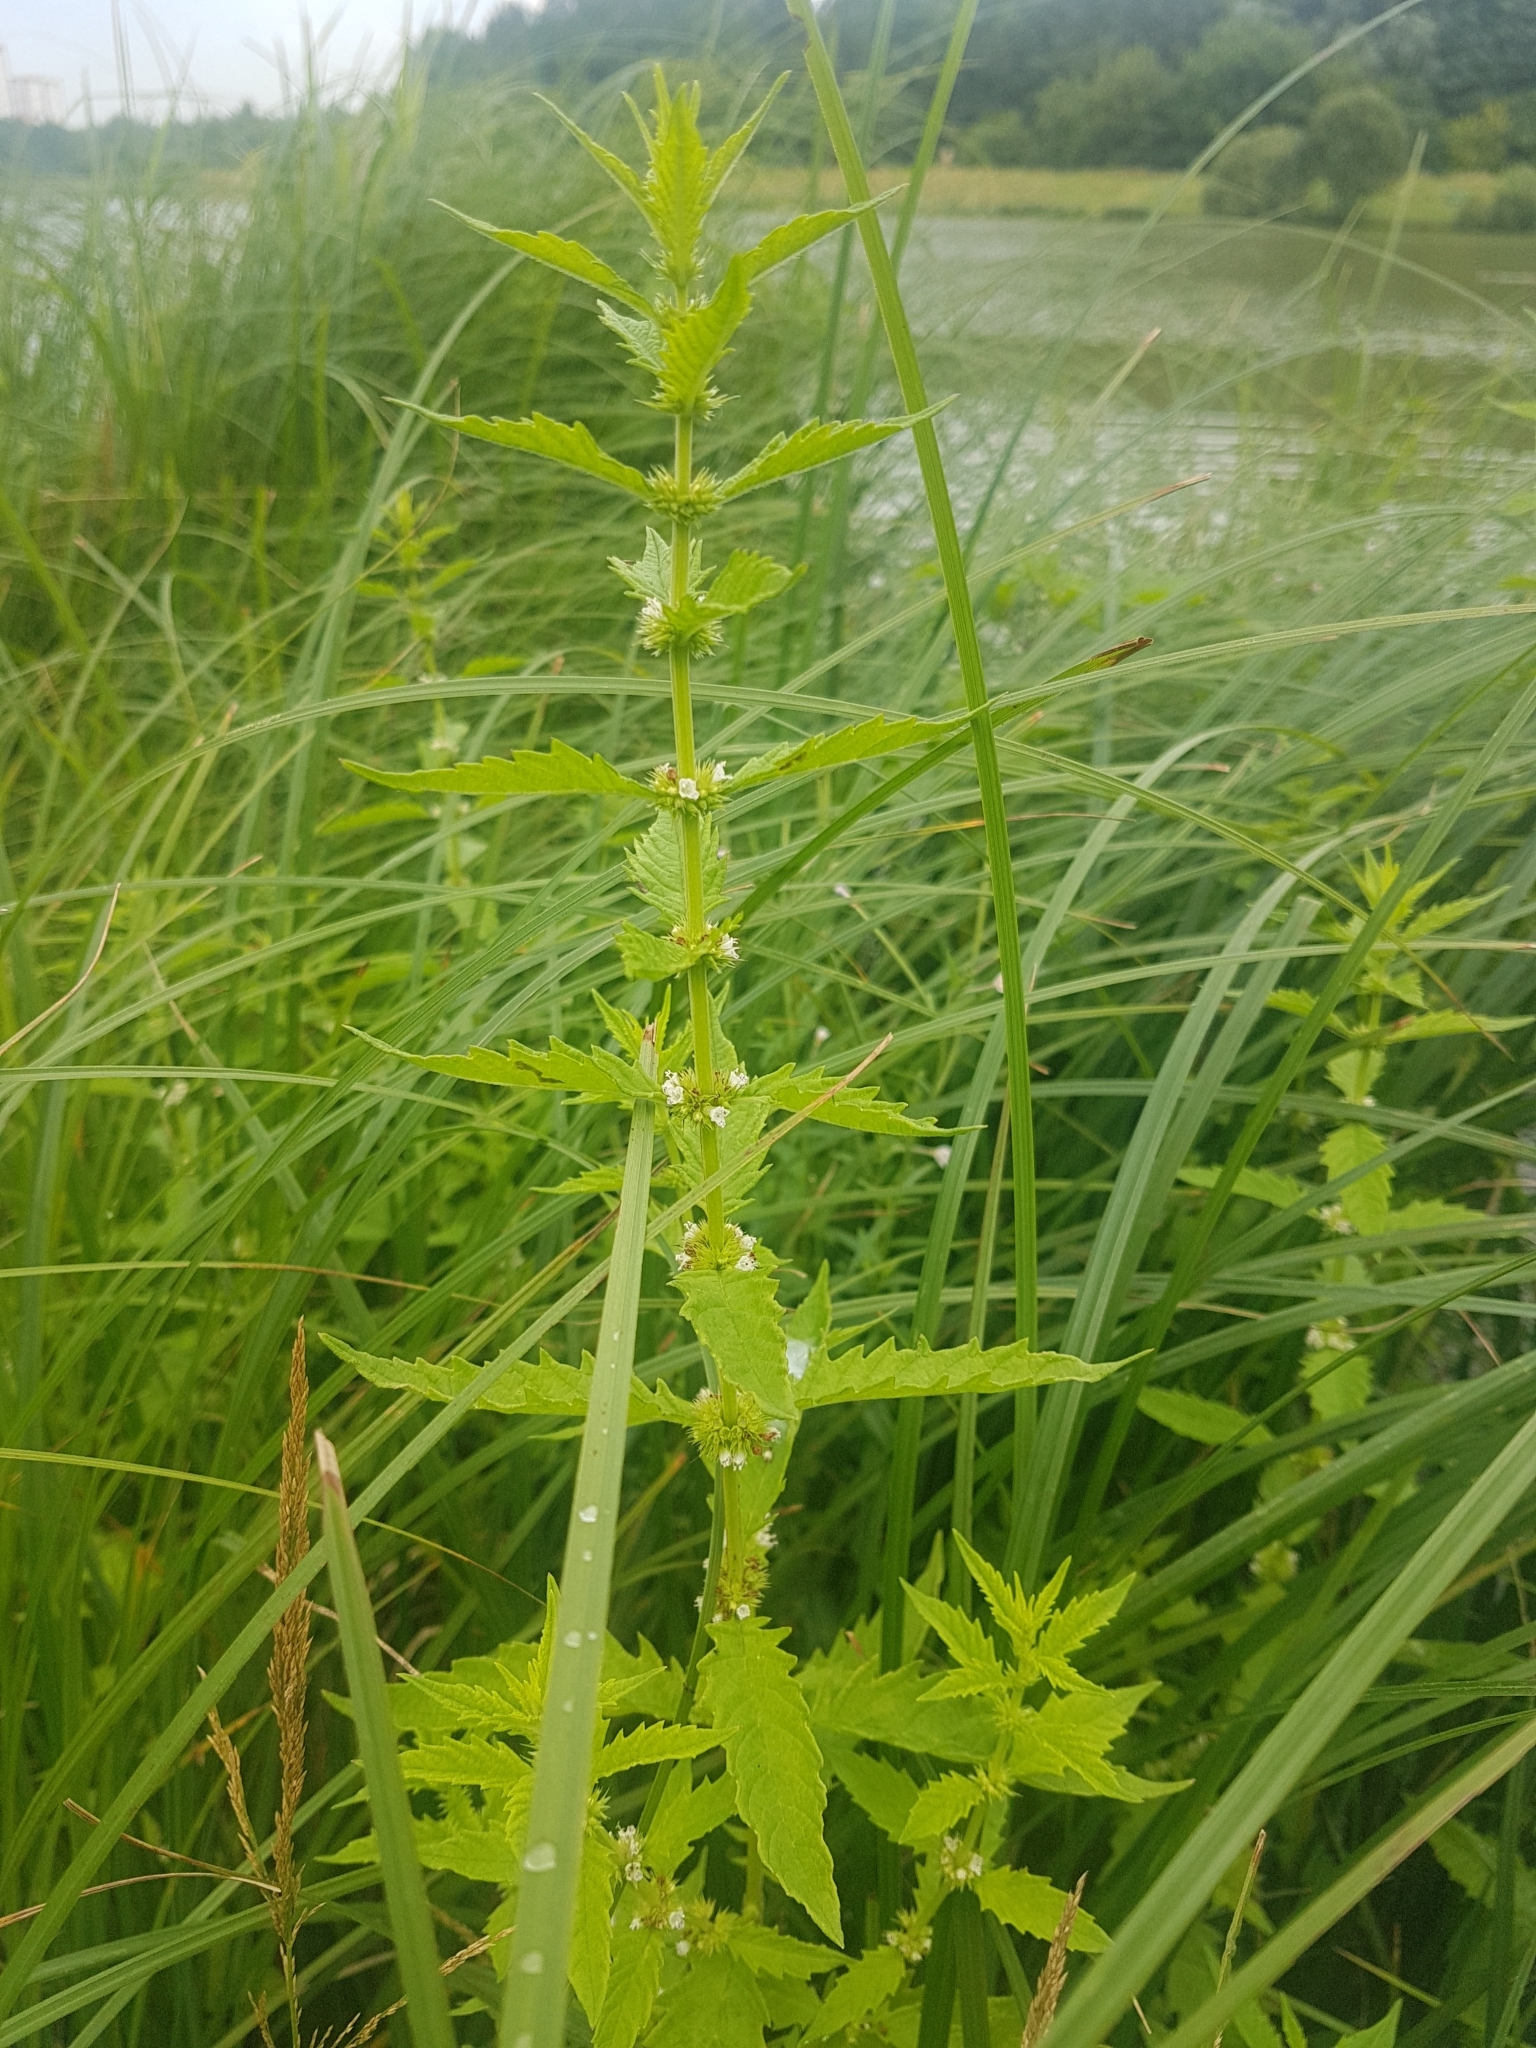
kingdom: Plantae
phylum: Tracheophyta
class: Magnoliopsida
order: Lamiales
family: Lamiaceae
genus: Lycopus
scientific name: Lycopus europaeus
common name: European bugleweed
